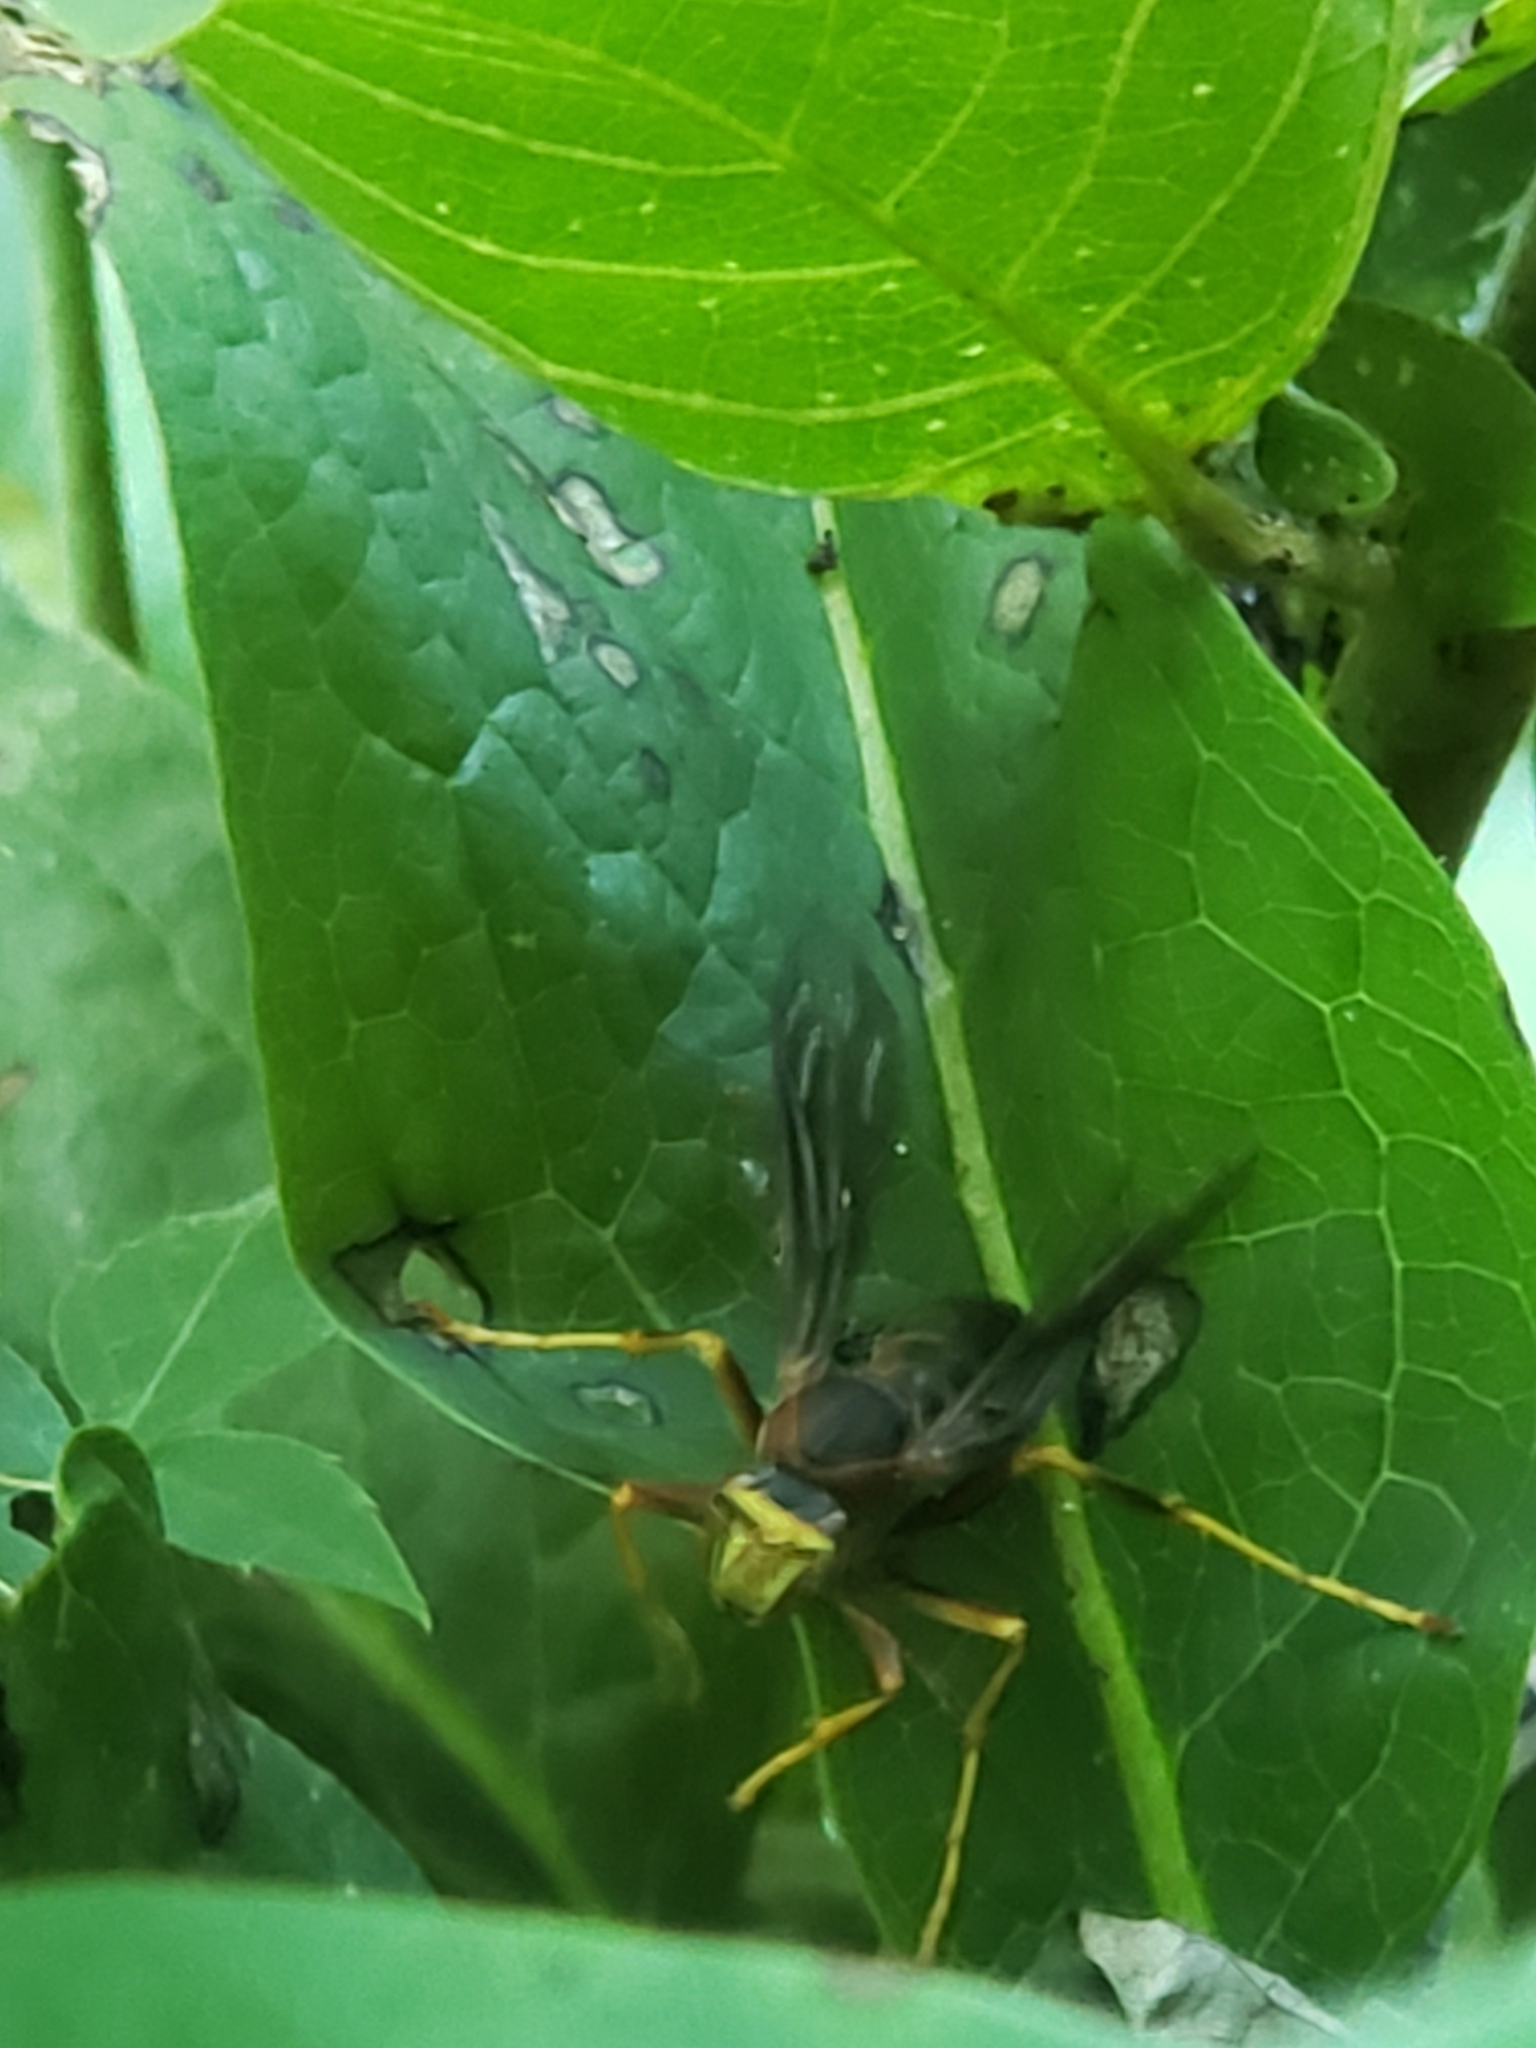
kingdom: Animalia
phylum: Arthropoda
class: Insecta
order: Hymenoptera
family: Eumenidae
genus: Polistes
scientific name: Polistes metricus
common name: Metric paper wasp
